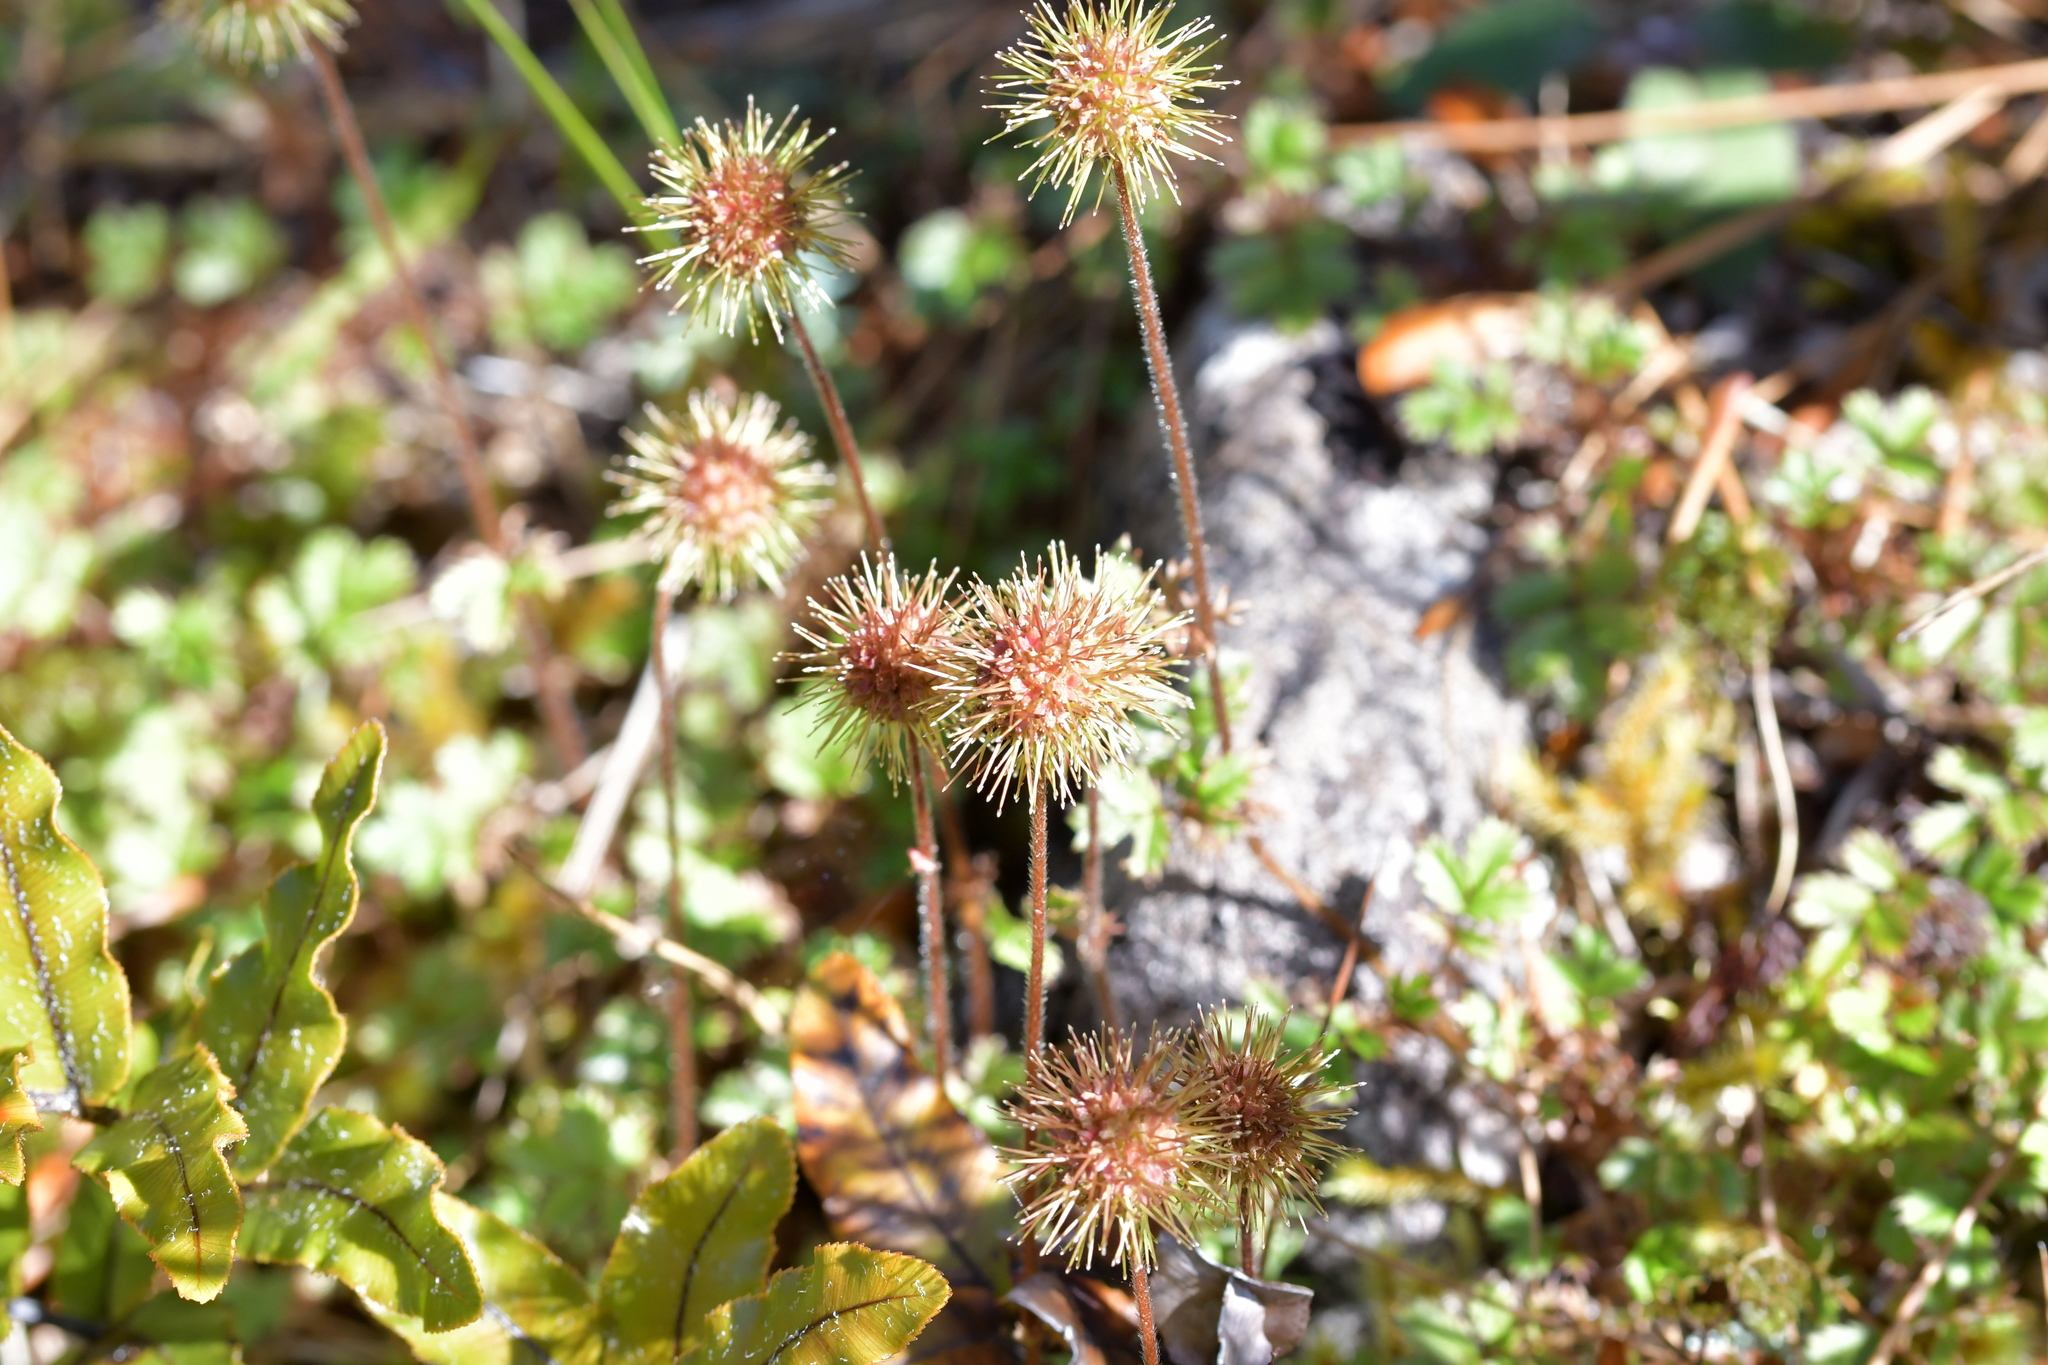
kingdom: Plantae
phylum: Tracheophyta
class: Magnoliopsida
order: Rosales
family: Rosaceae
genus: Acaena
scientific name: Acaena anserinifolia
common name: Bronze pirri-pirri-bur
